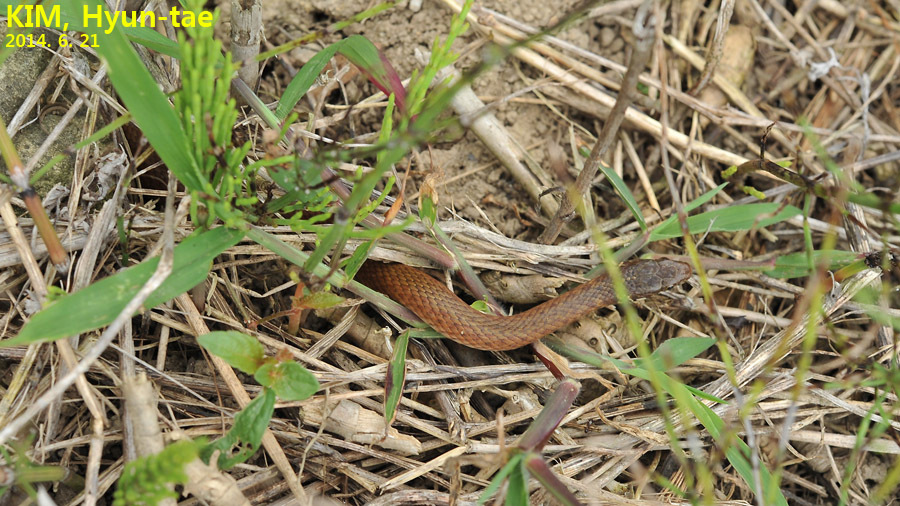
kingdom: Animalia
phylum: Chordata
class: Squamata
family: Colubridae
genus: Hebius
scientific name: Hebius vibakari
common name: Japanese keelback
